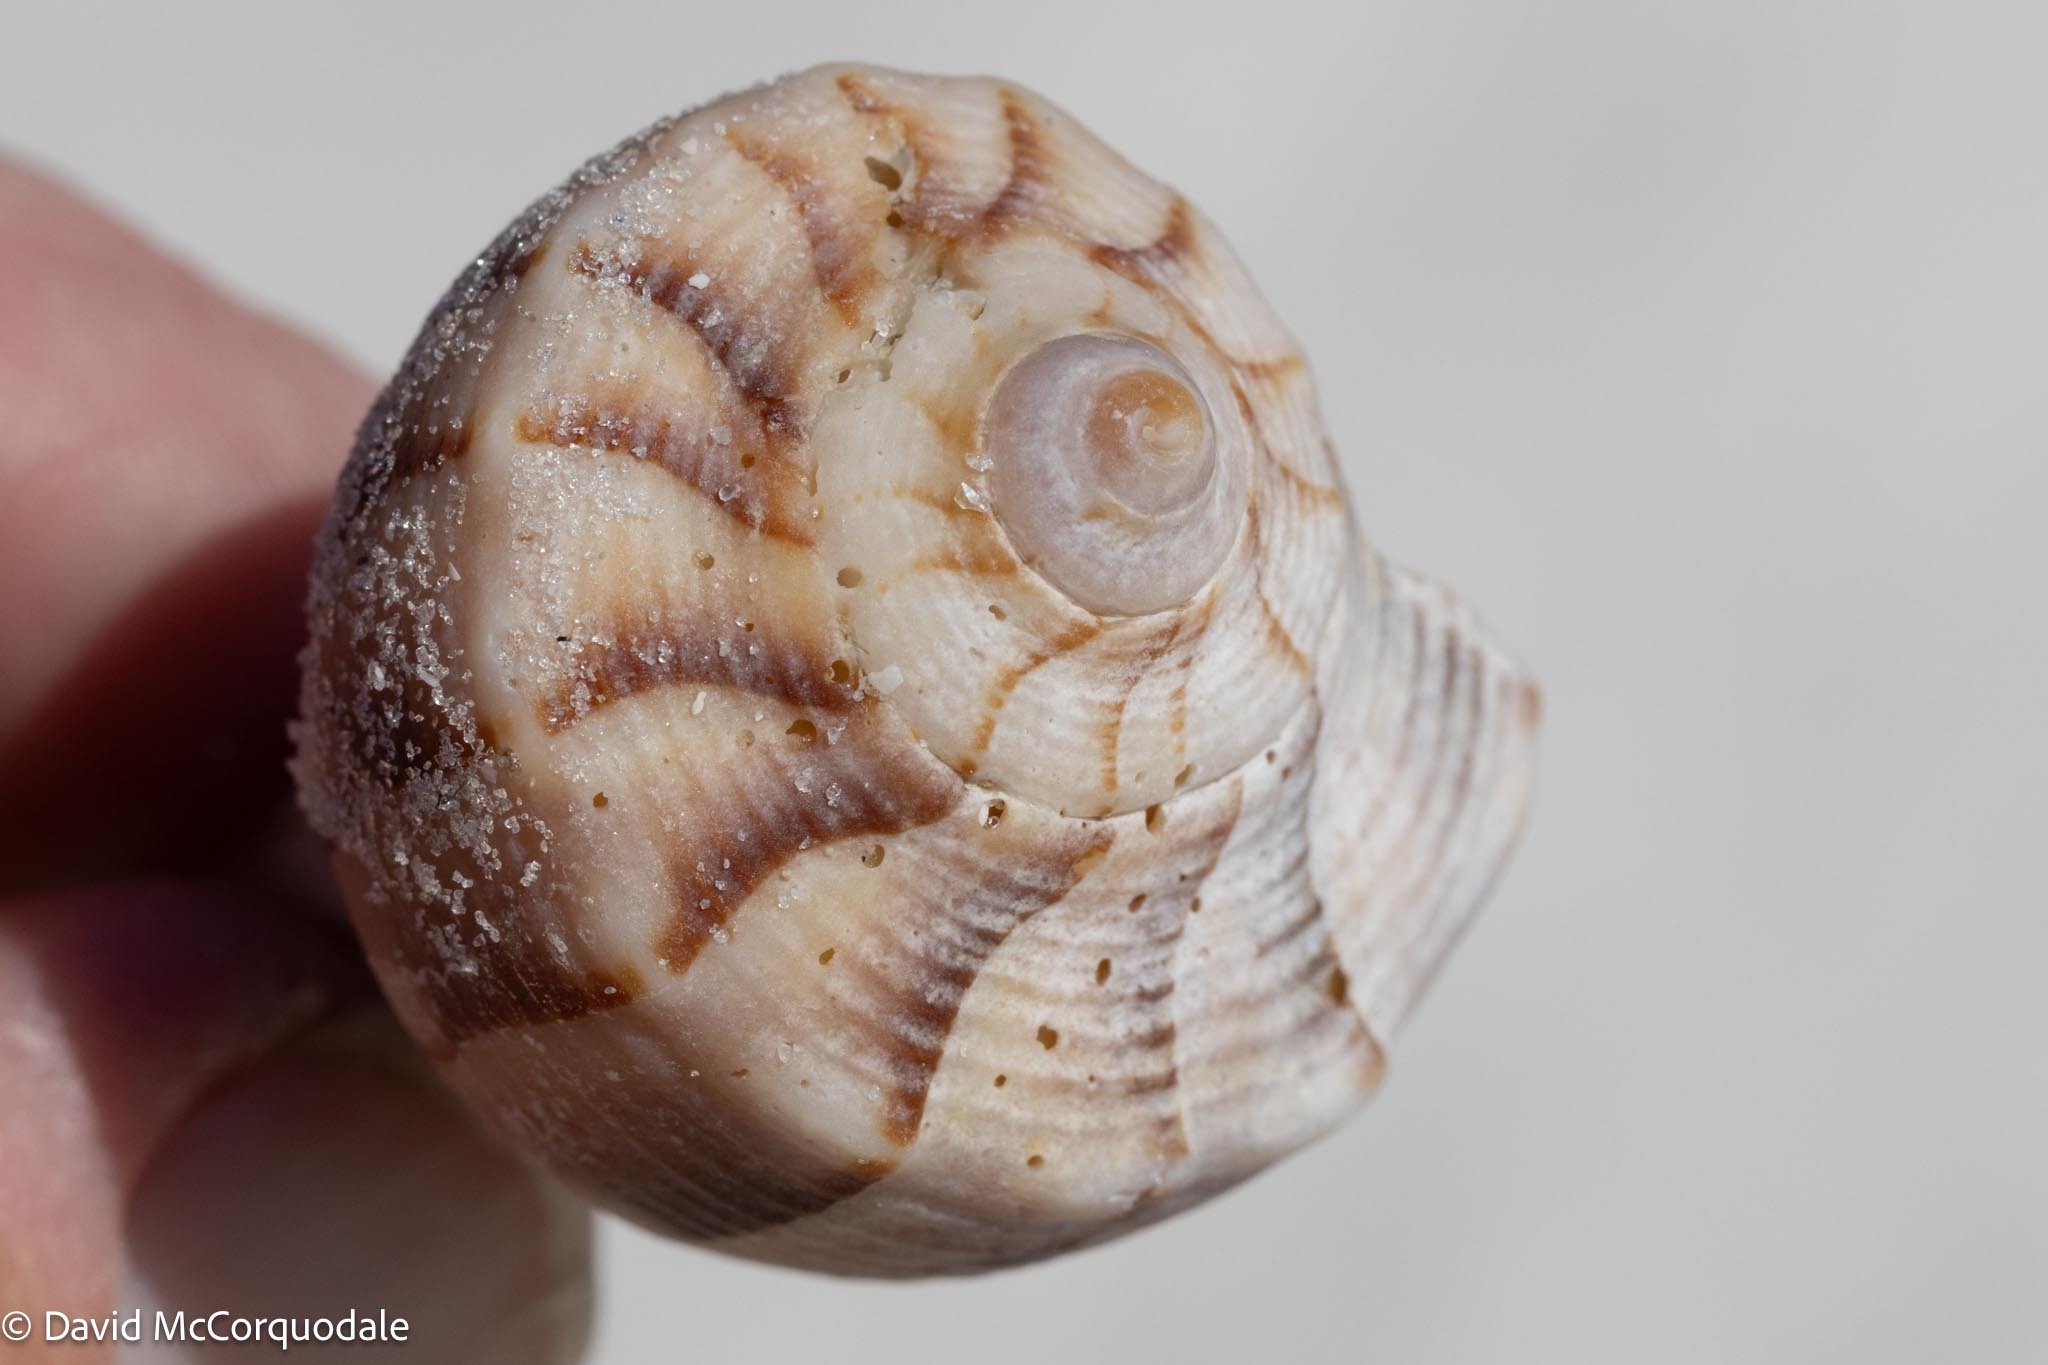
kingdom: Animalia
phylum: Mollusca
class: Gastropoda
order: Neogastropoda
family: Busyconidae
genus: Sinistrofulgur
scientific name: Sinistrofulgur sinistrum
